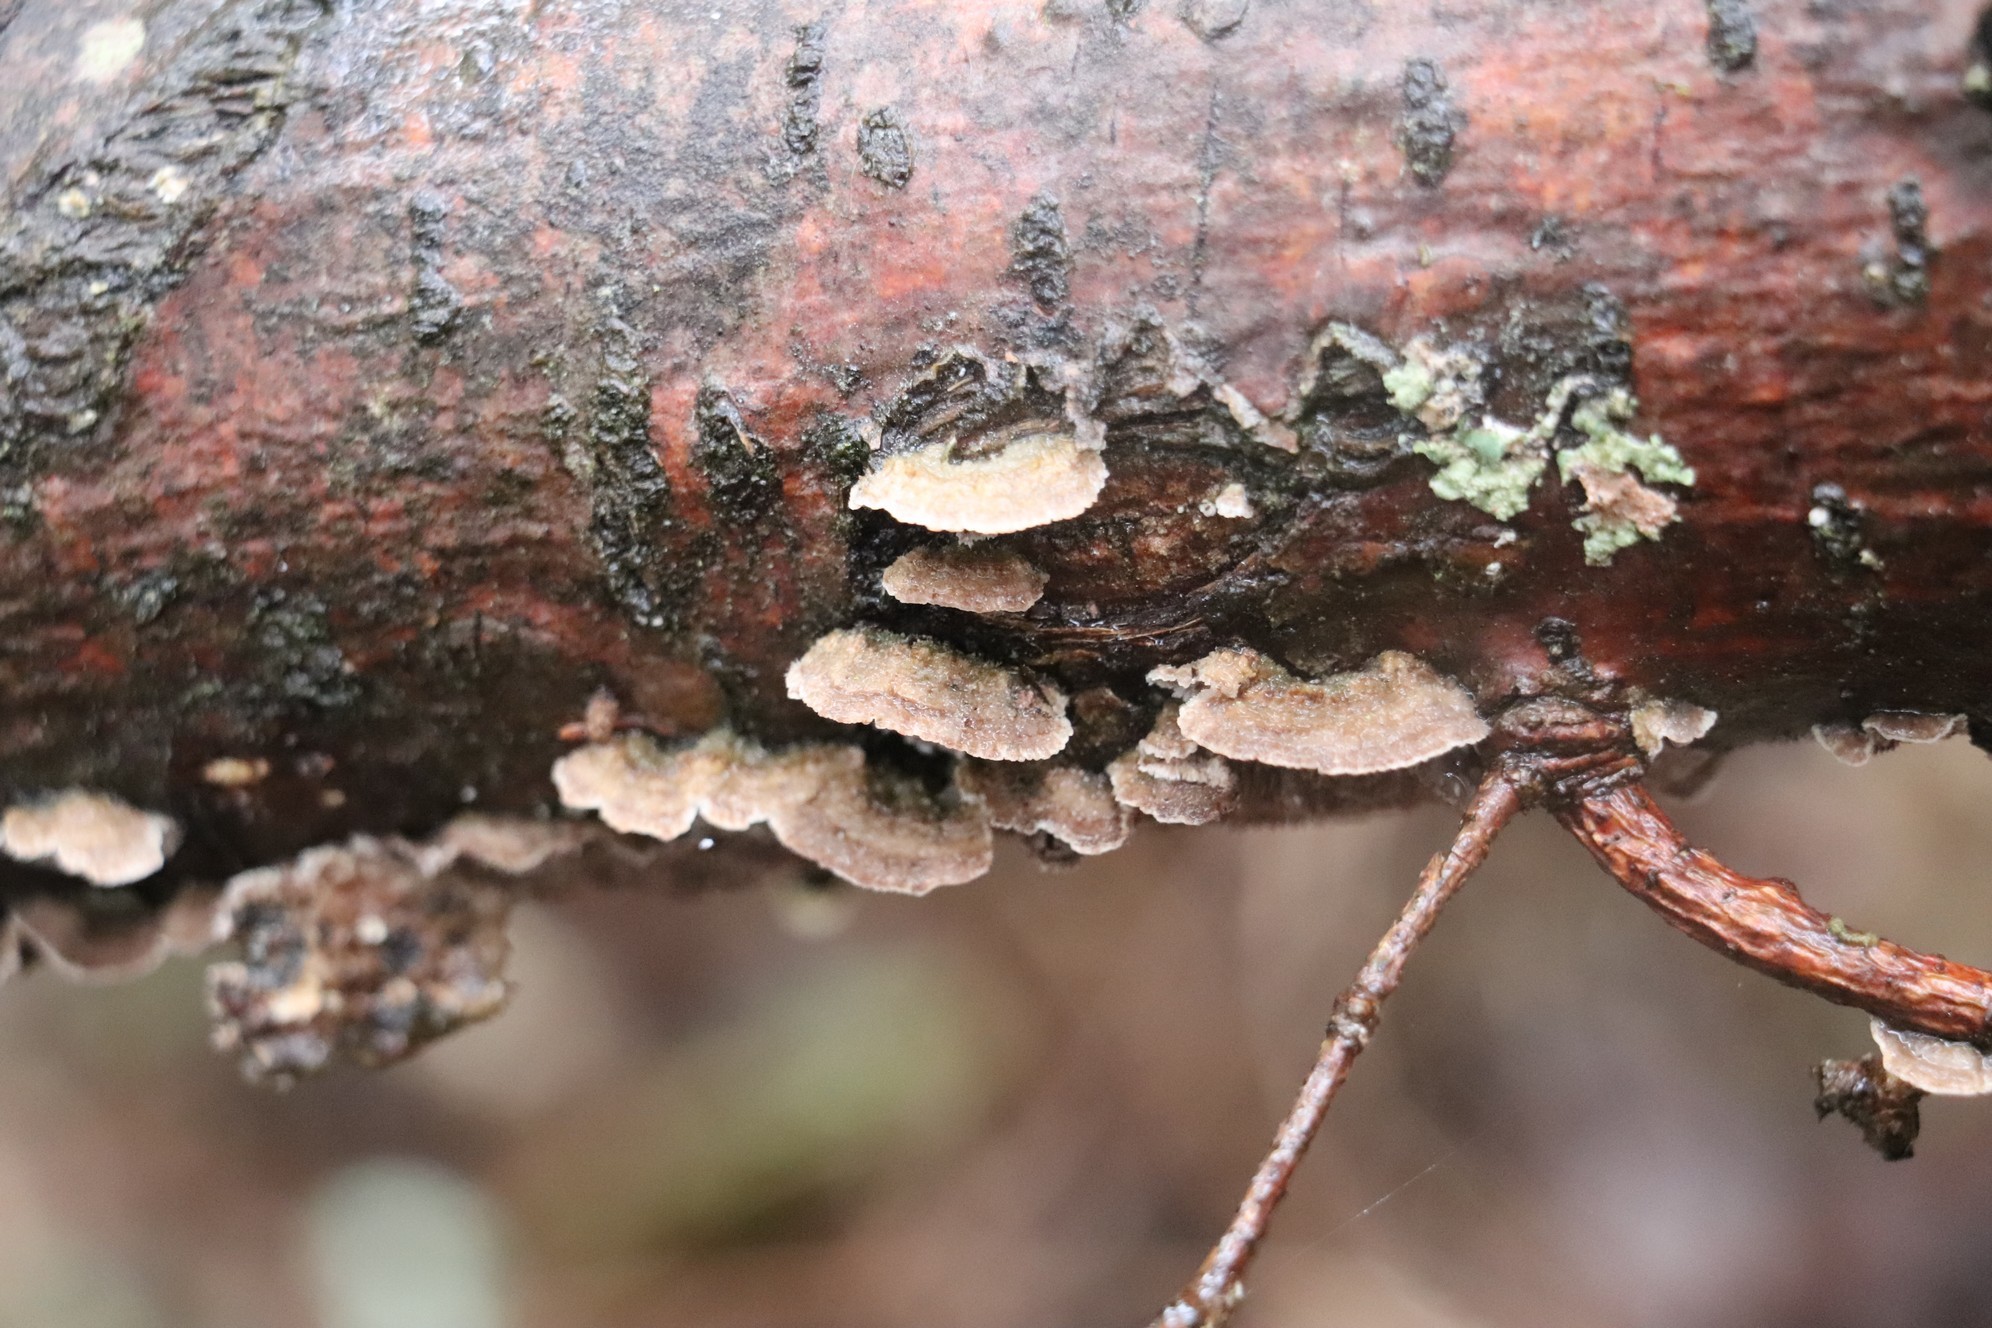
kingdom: Fungi
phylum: Basidiomycota
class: Agaricomycetes
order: Hymenochaetales
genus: Trichaptum
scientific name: Trichaptum fuscoviolaceum
